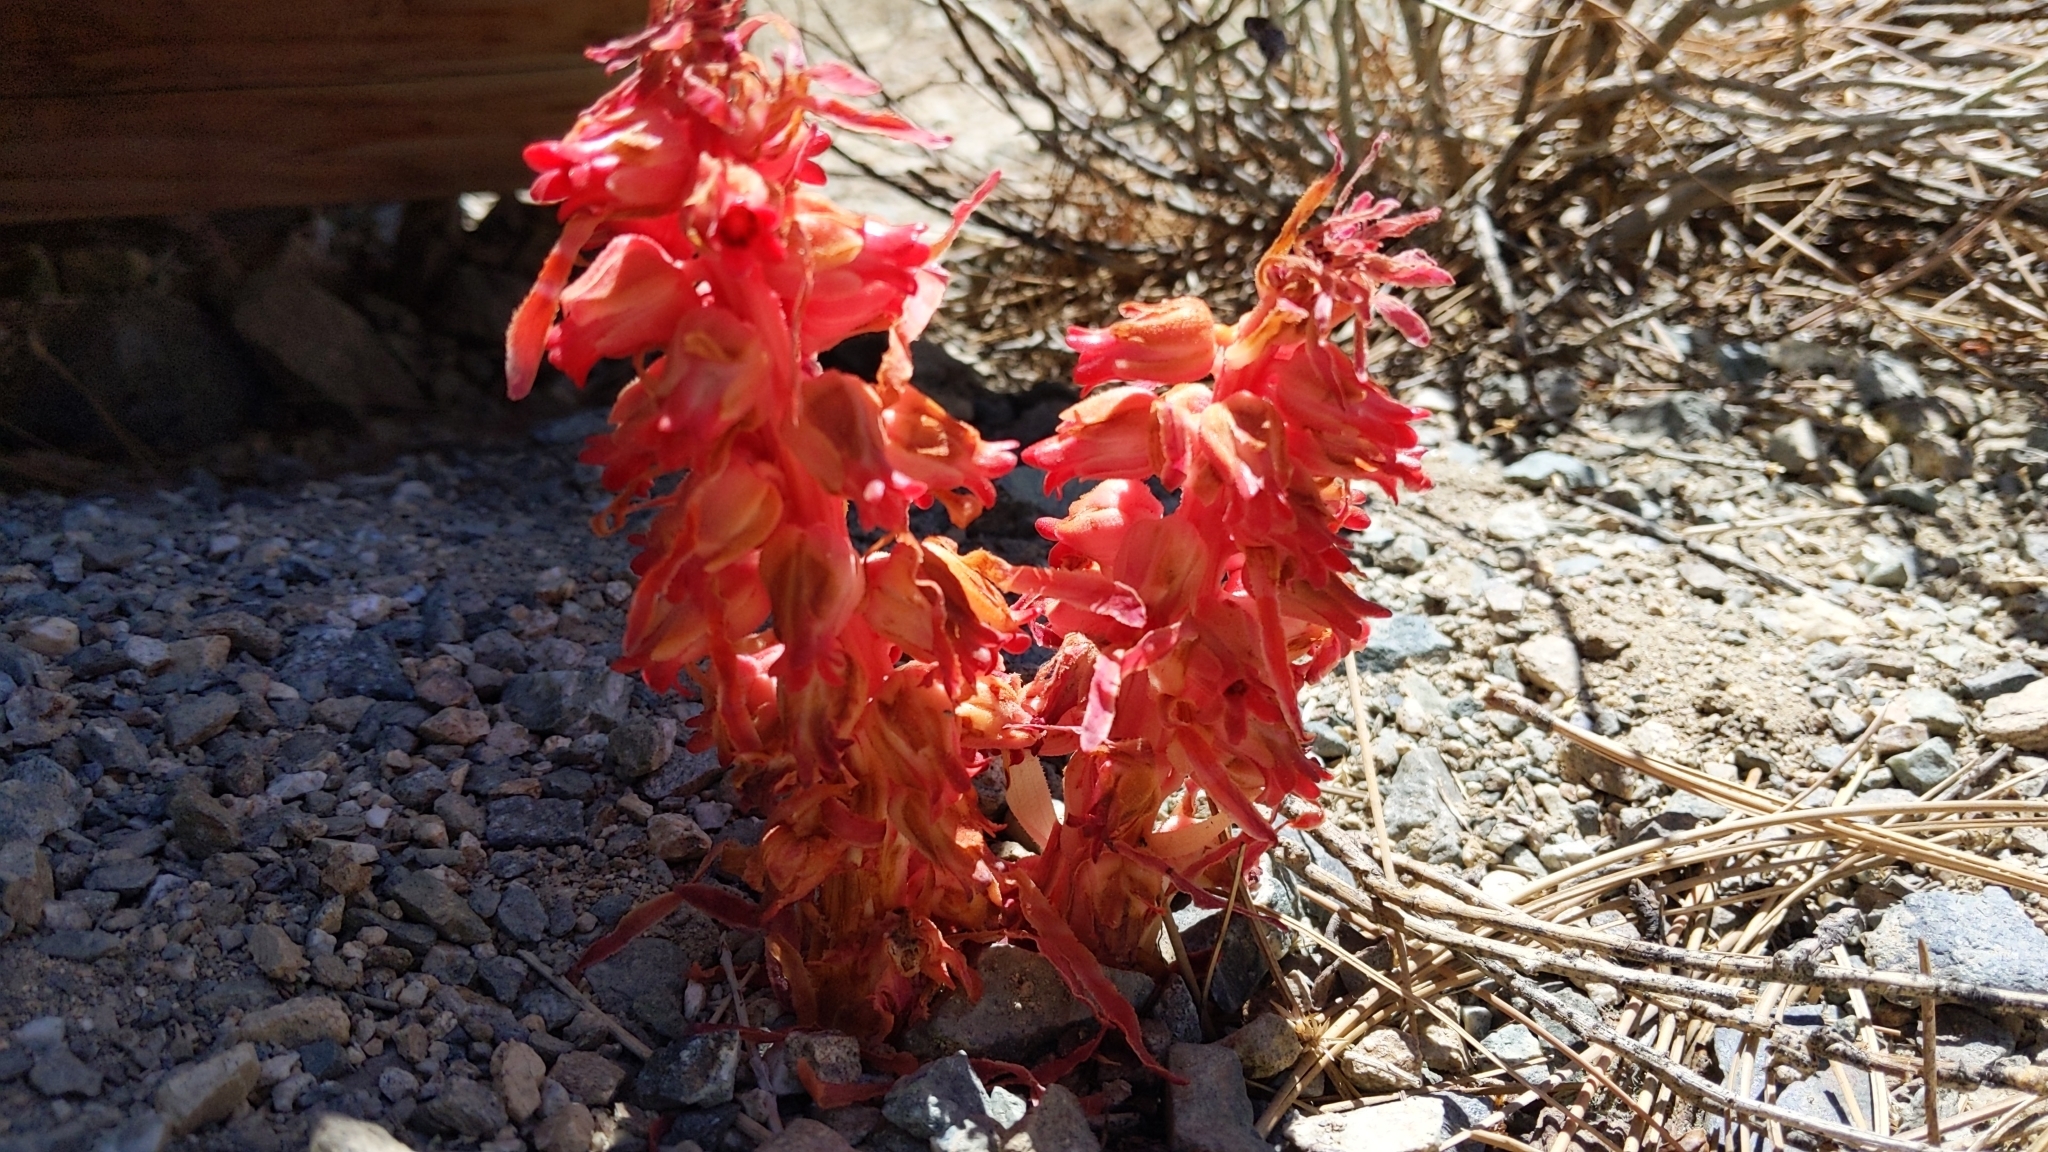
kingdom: Plantae
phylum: Tracheophyta
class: Magnoliopsida
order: Ericales
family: Ericaceae
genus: Sarcodes
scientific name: Sarcodes sanguinea
